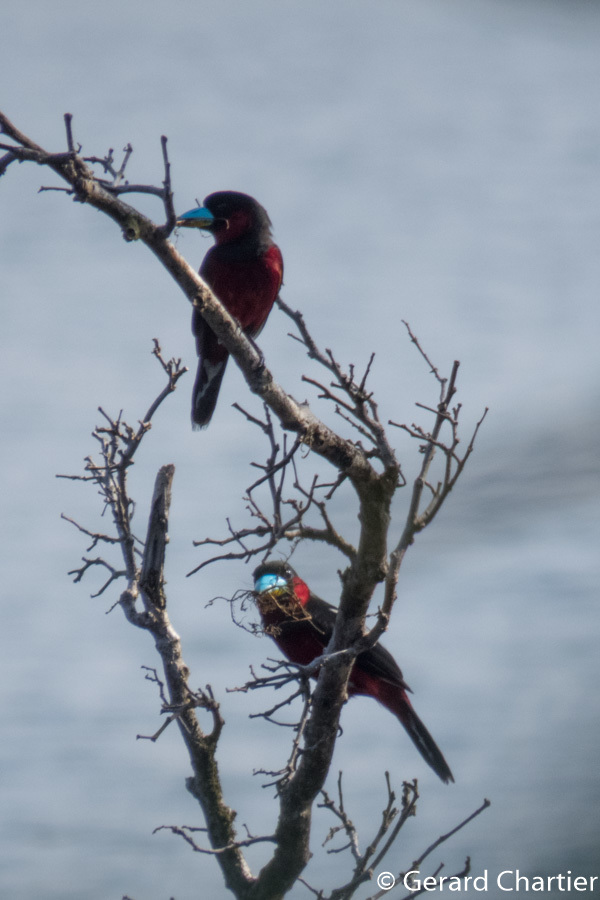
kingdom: Animalia
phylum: Chordata
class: Aves
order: Passeriformes
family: Eurylaimidae
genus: Cymbirhynchus
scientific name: Cymbirhynchus macrorhynchos
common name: Black-and-red broadbill
